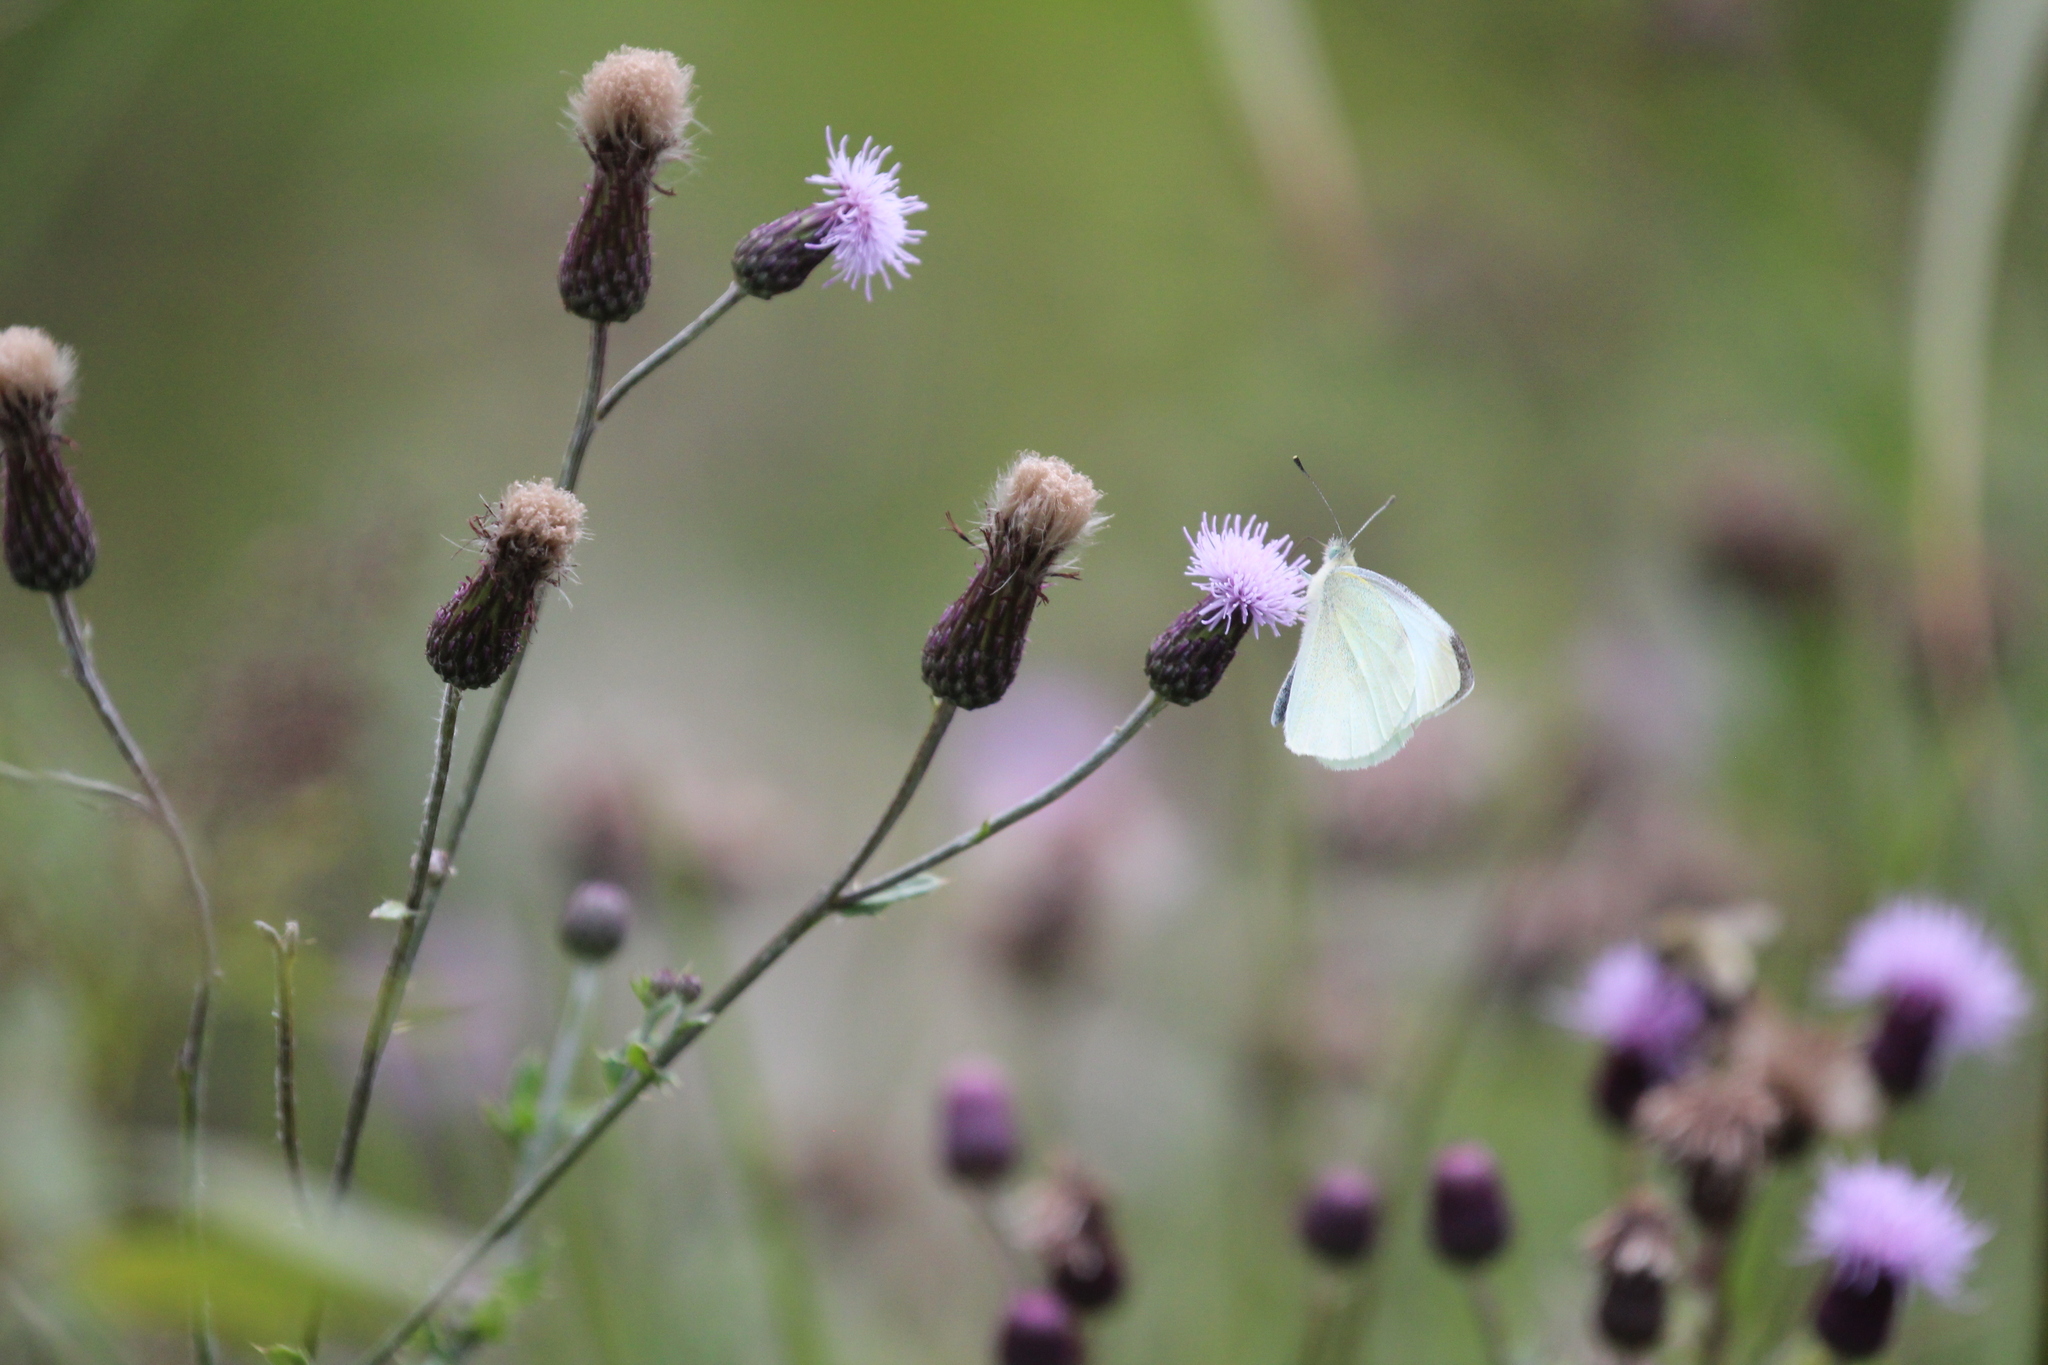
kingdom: Animalia
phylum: Arthropoda
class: Insecta
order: Lepidoptera
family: Pieridae
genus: Pieris
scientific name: Pieris rapae
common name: Small white
